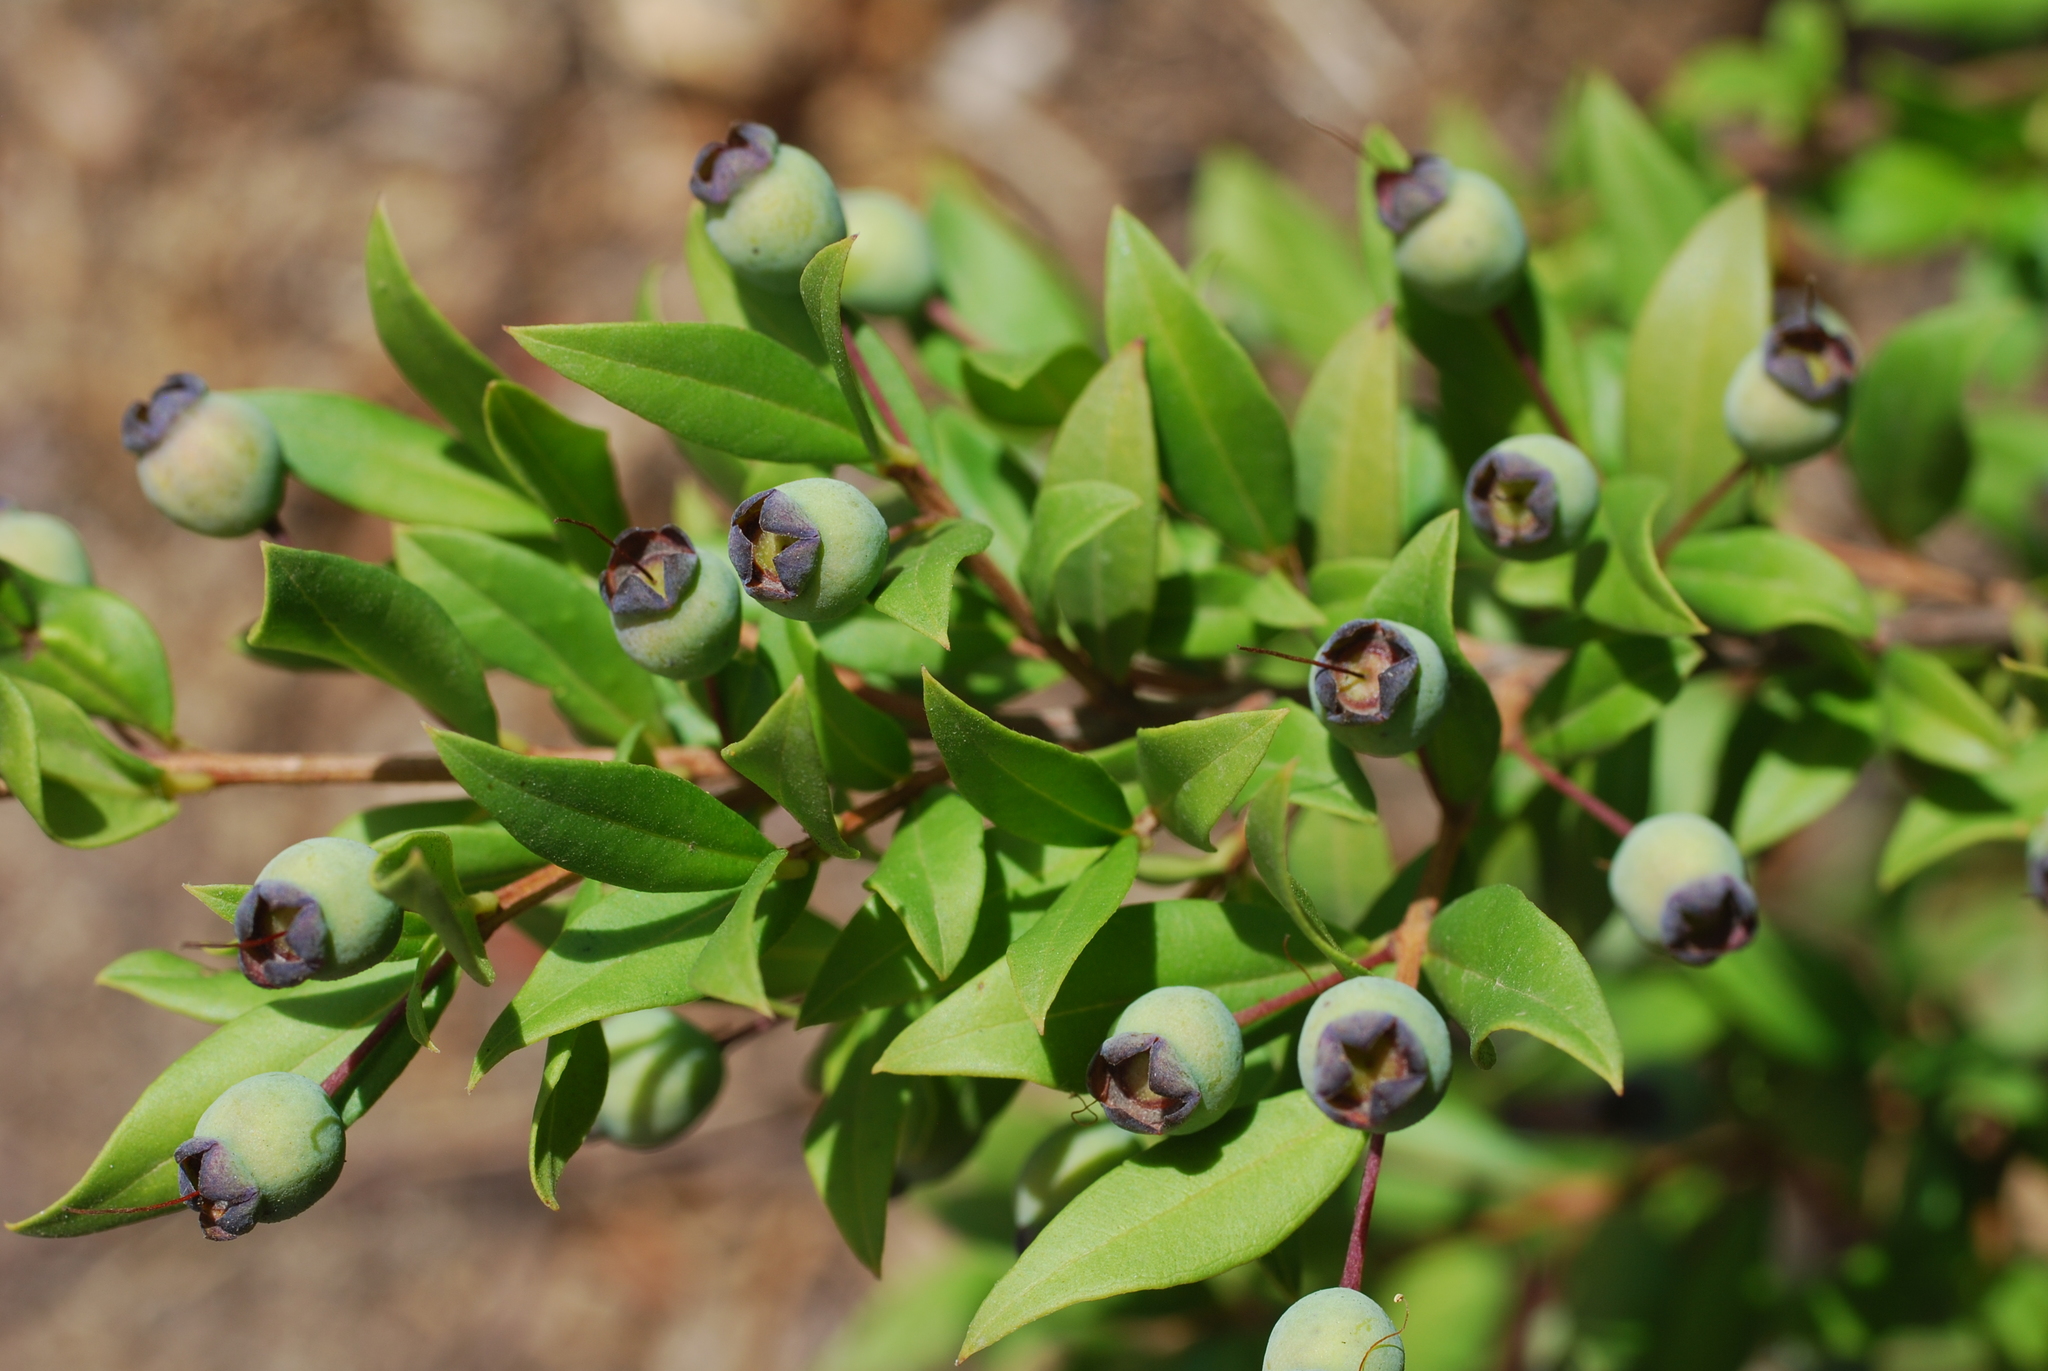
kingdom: Plantae
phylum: Tracheophyta
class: Magnoliopsida
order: Myrtales
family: Myrtaceae
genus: Myrtus
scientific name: Myrtus communis
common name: Myrtle
